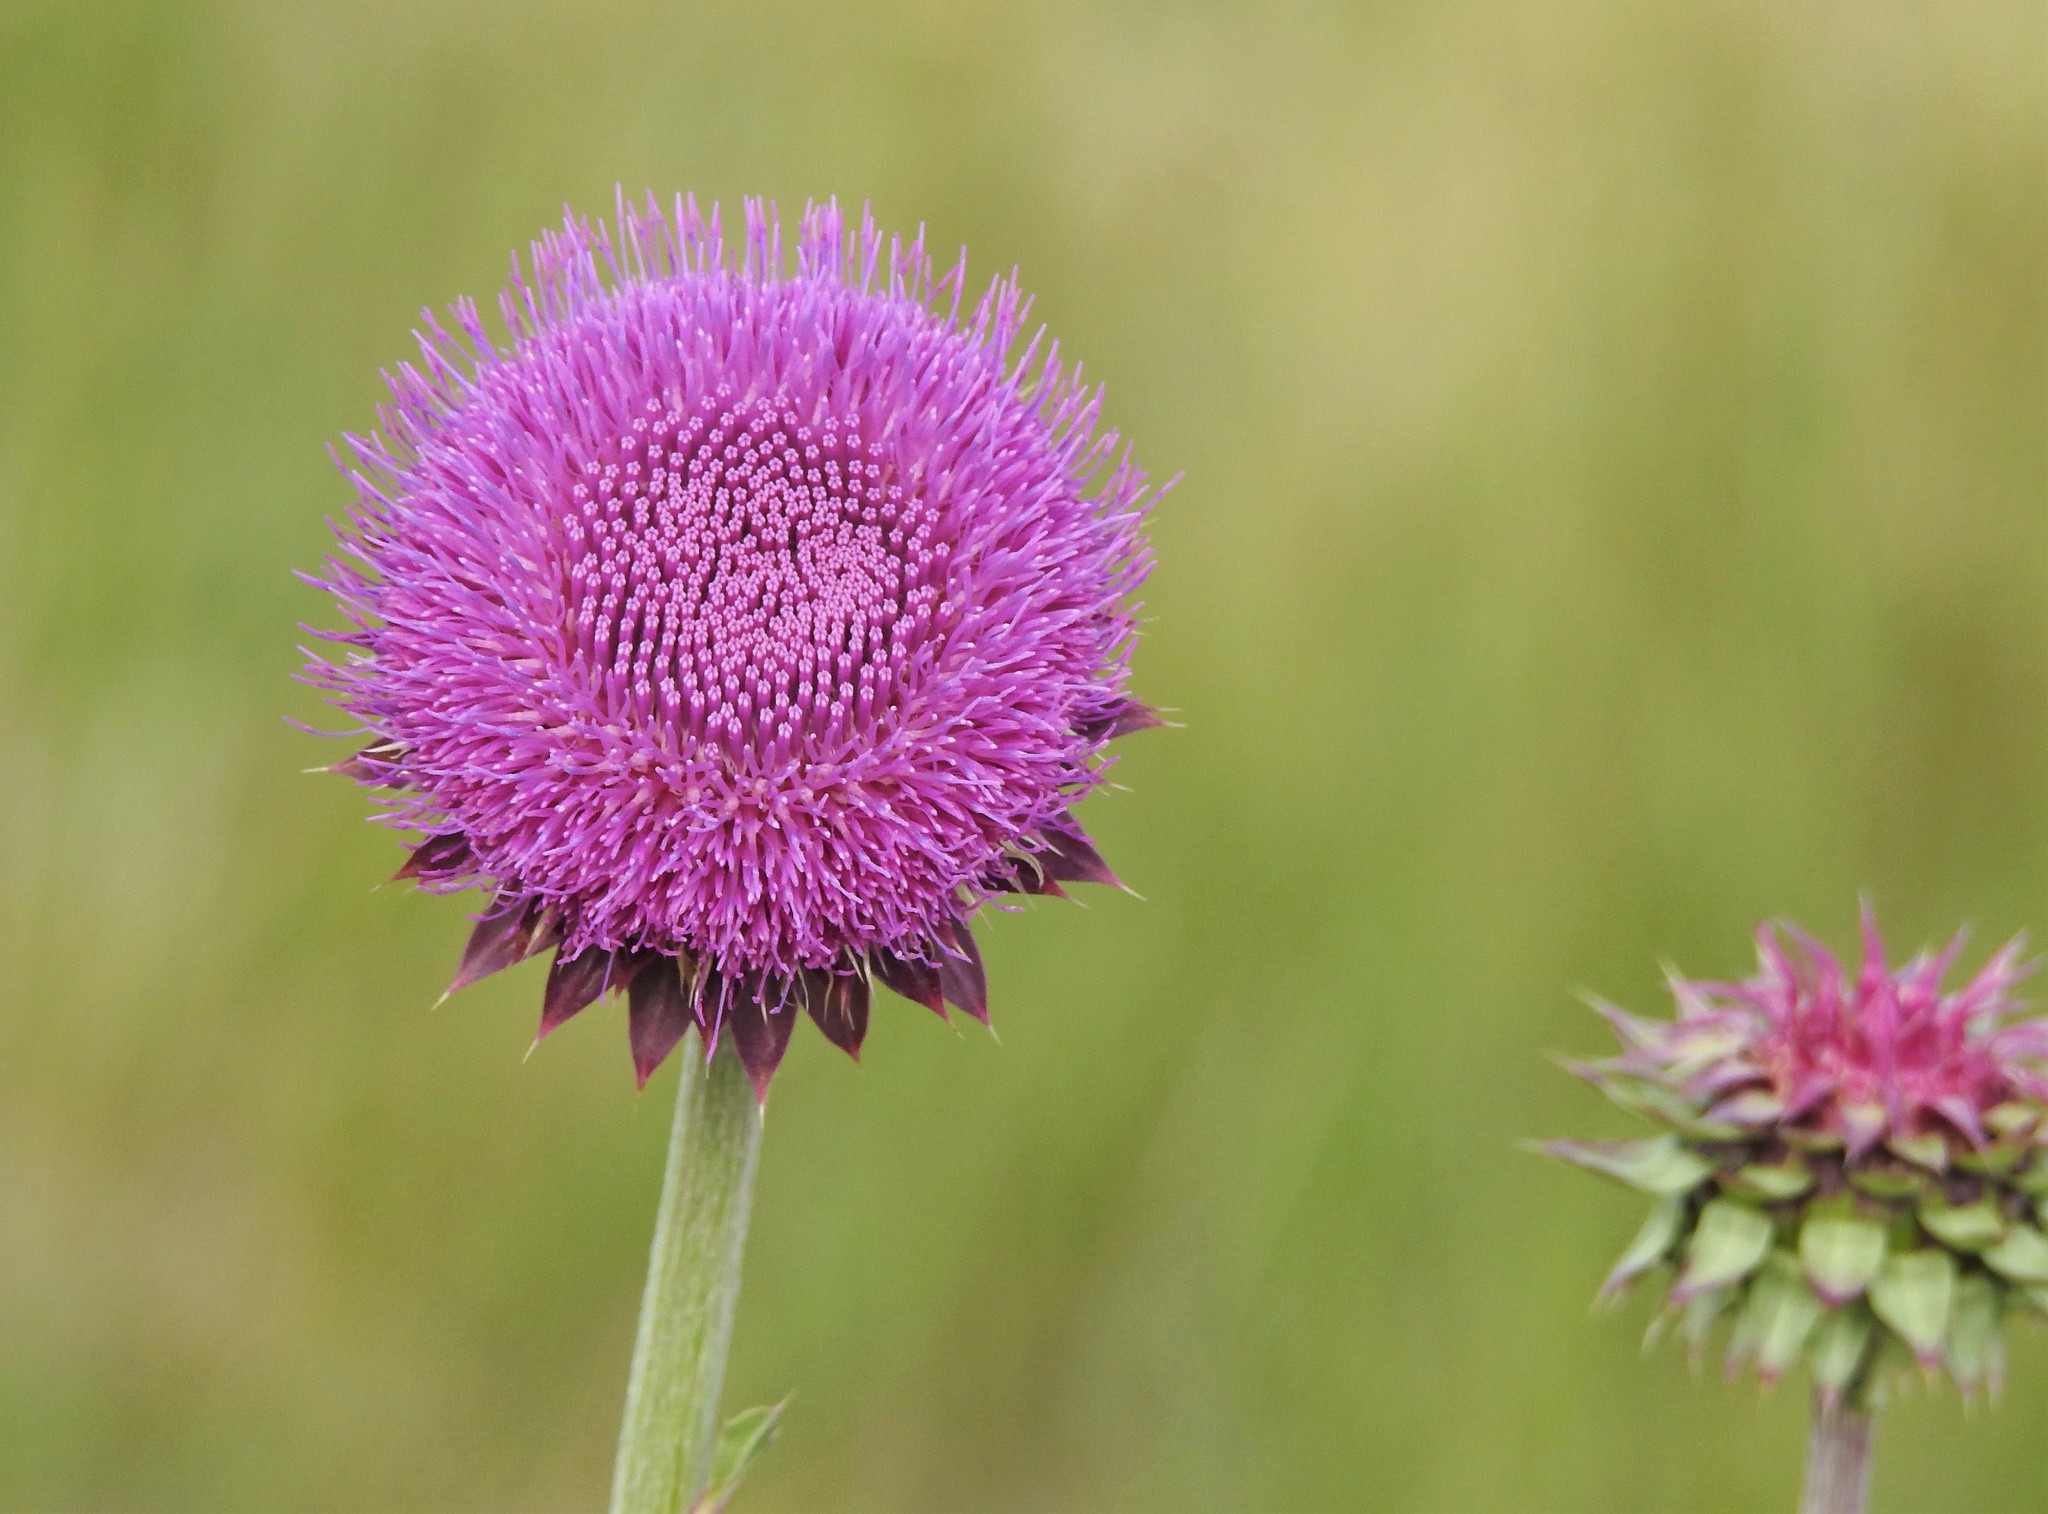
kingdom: Plantae
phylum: Tracheophyta
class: Magnoliopsida
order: Asterales
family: Asteraceae
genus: Carduus
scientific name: Carduus nutans
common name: Musk thistle
